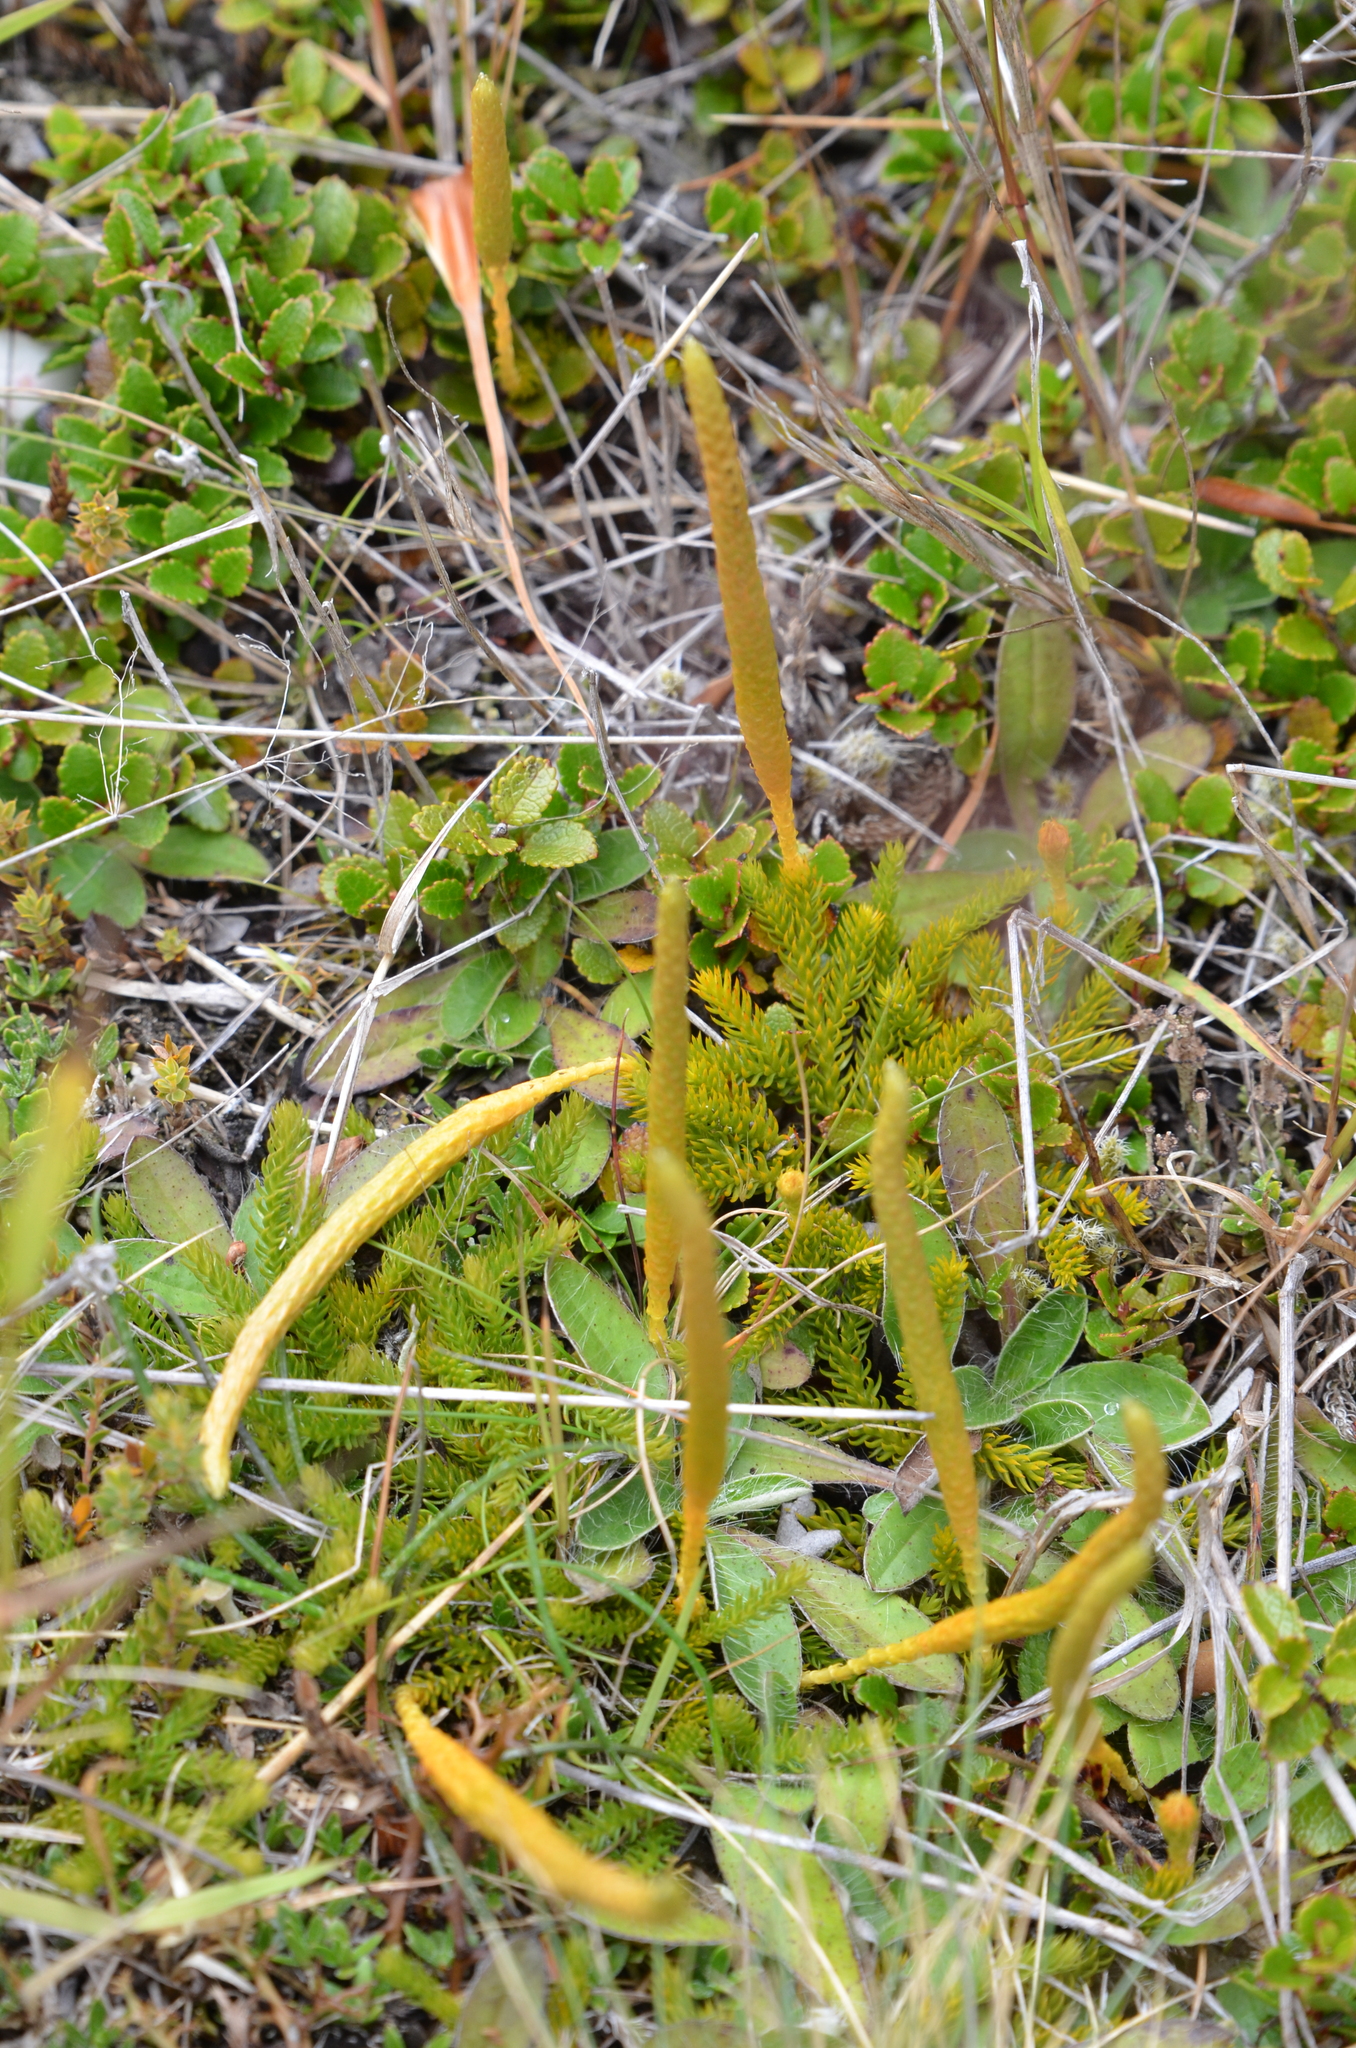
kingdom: Plantae
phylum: Tracheophyta
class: Lycopodiopsida
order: Lycopodiales
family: Lycopodiaceae
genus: Austrolycopodium
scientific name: Austrolycopodium fastigiatum
